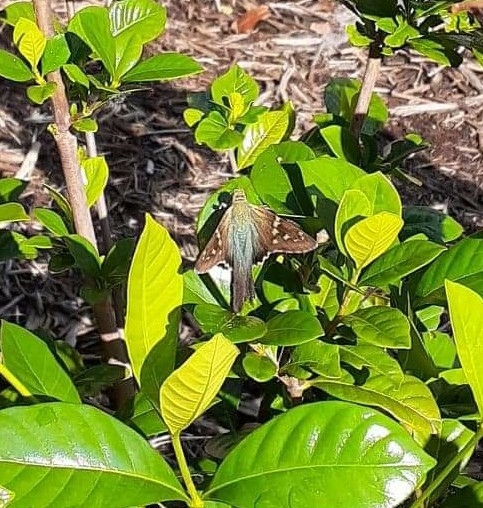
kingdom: Animalia
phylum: Arthropoda
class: Insecta
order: Lepidoptera
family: Hesperiidae
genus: Urbanus
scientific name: Urbanus proteus
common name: Long-tailed skipper
